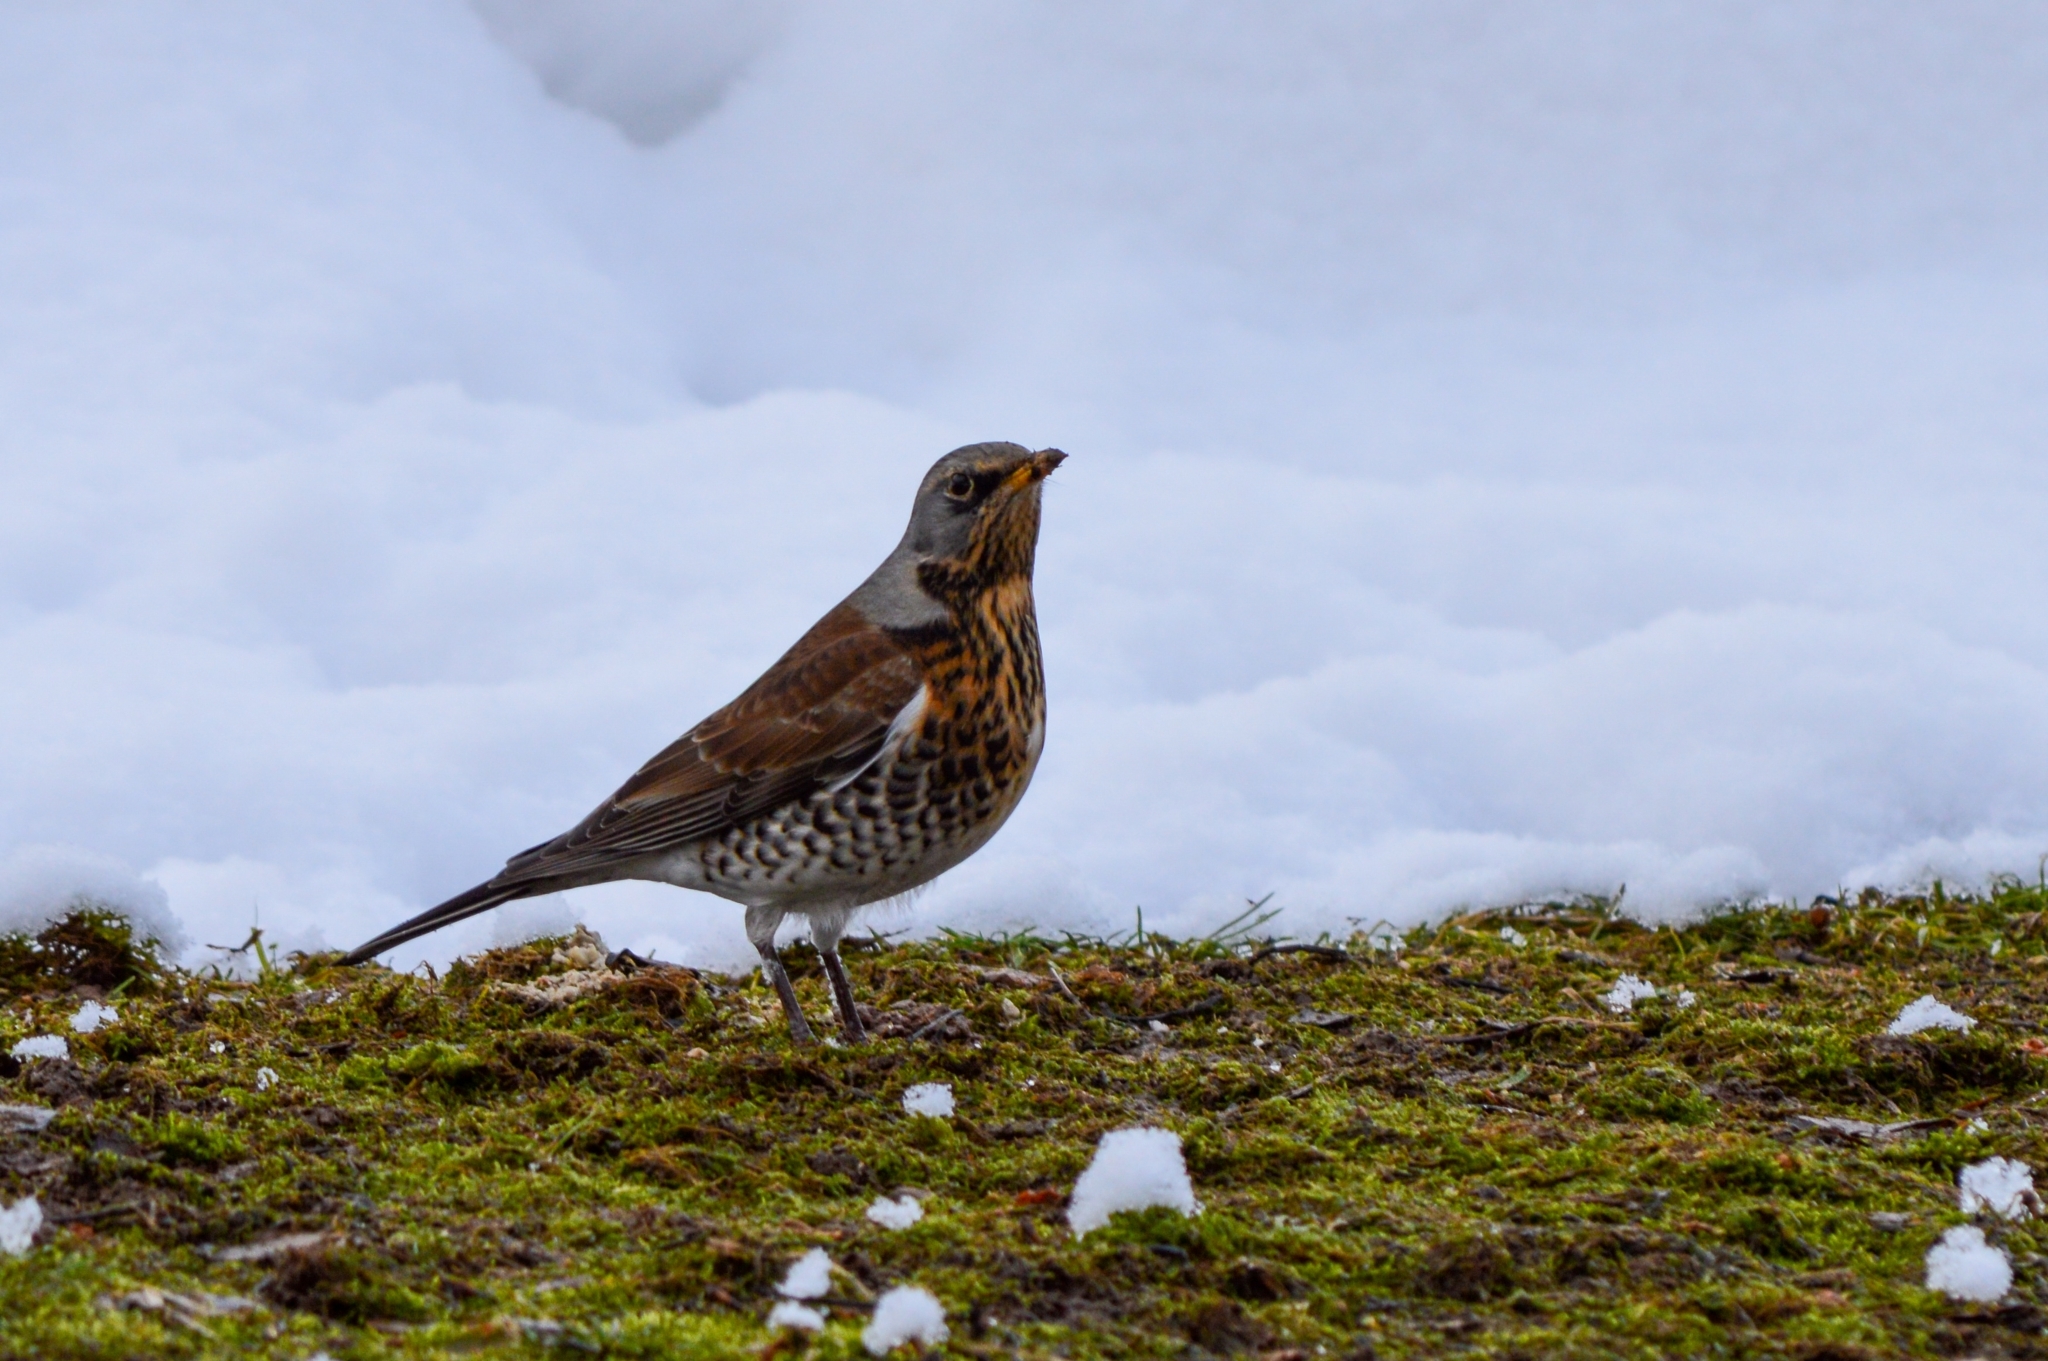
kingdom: Animalia
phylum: Chordata
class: Aves
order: Passeriformes
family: Turdidae
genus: Turdus
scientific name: Turdus pilaris
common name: Fieldfare
